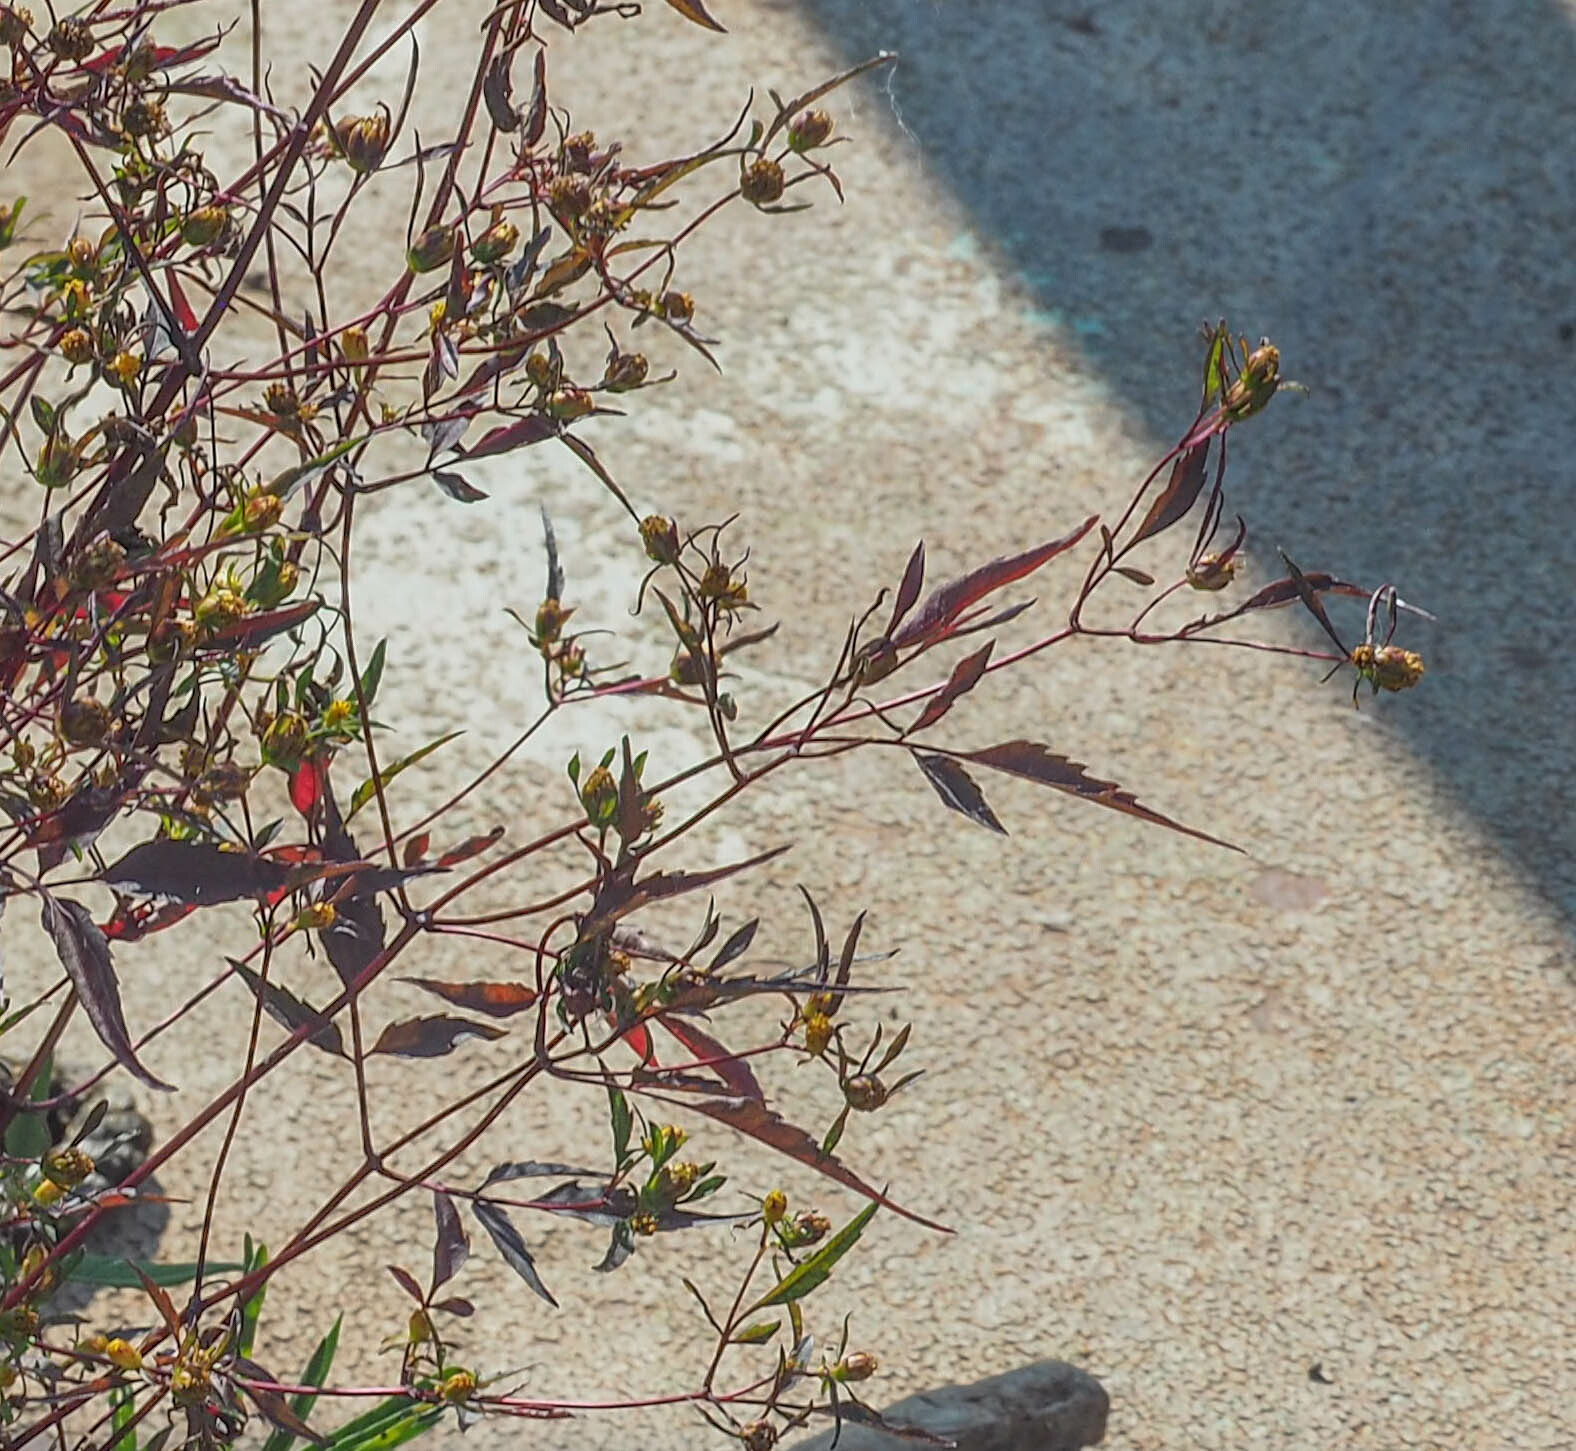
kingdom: Plantae
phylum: Tracheophyta
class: Magnoliopsida
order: Asterales
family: Asteraceae
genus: Bidens
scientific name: Bidens frondosa
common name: Beggarticks
